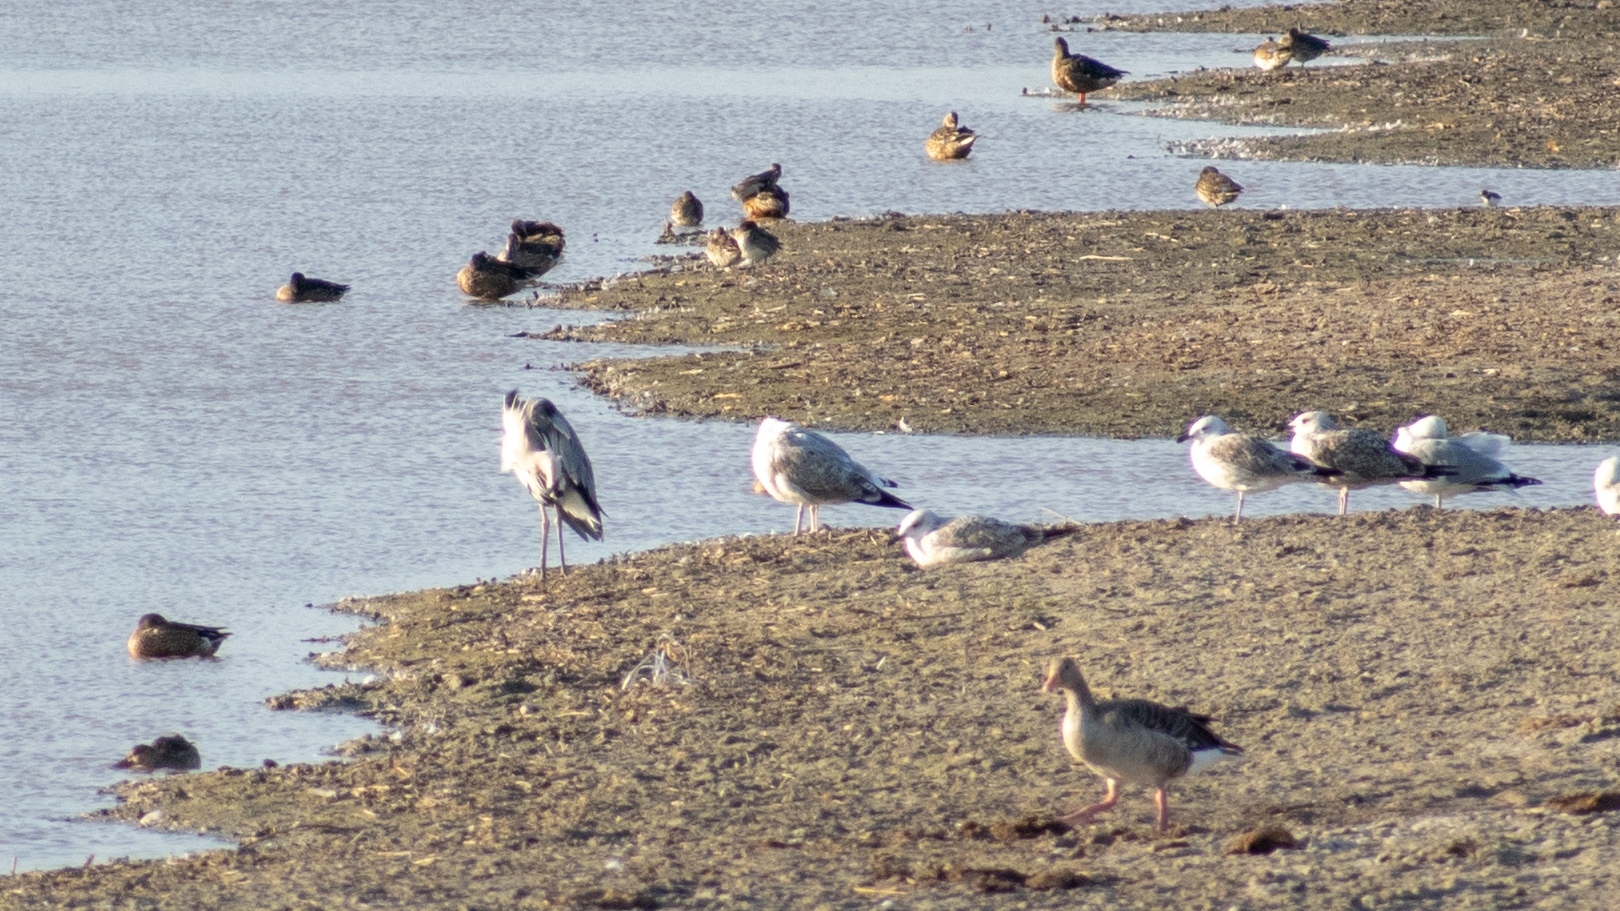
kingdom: Animalia
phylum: Chordata
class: Aves
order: Anseriformes
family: Anatidae
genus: Anser
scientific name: Anser anser
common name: Greylag goose
